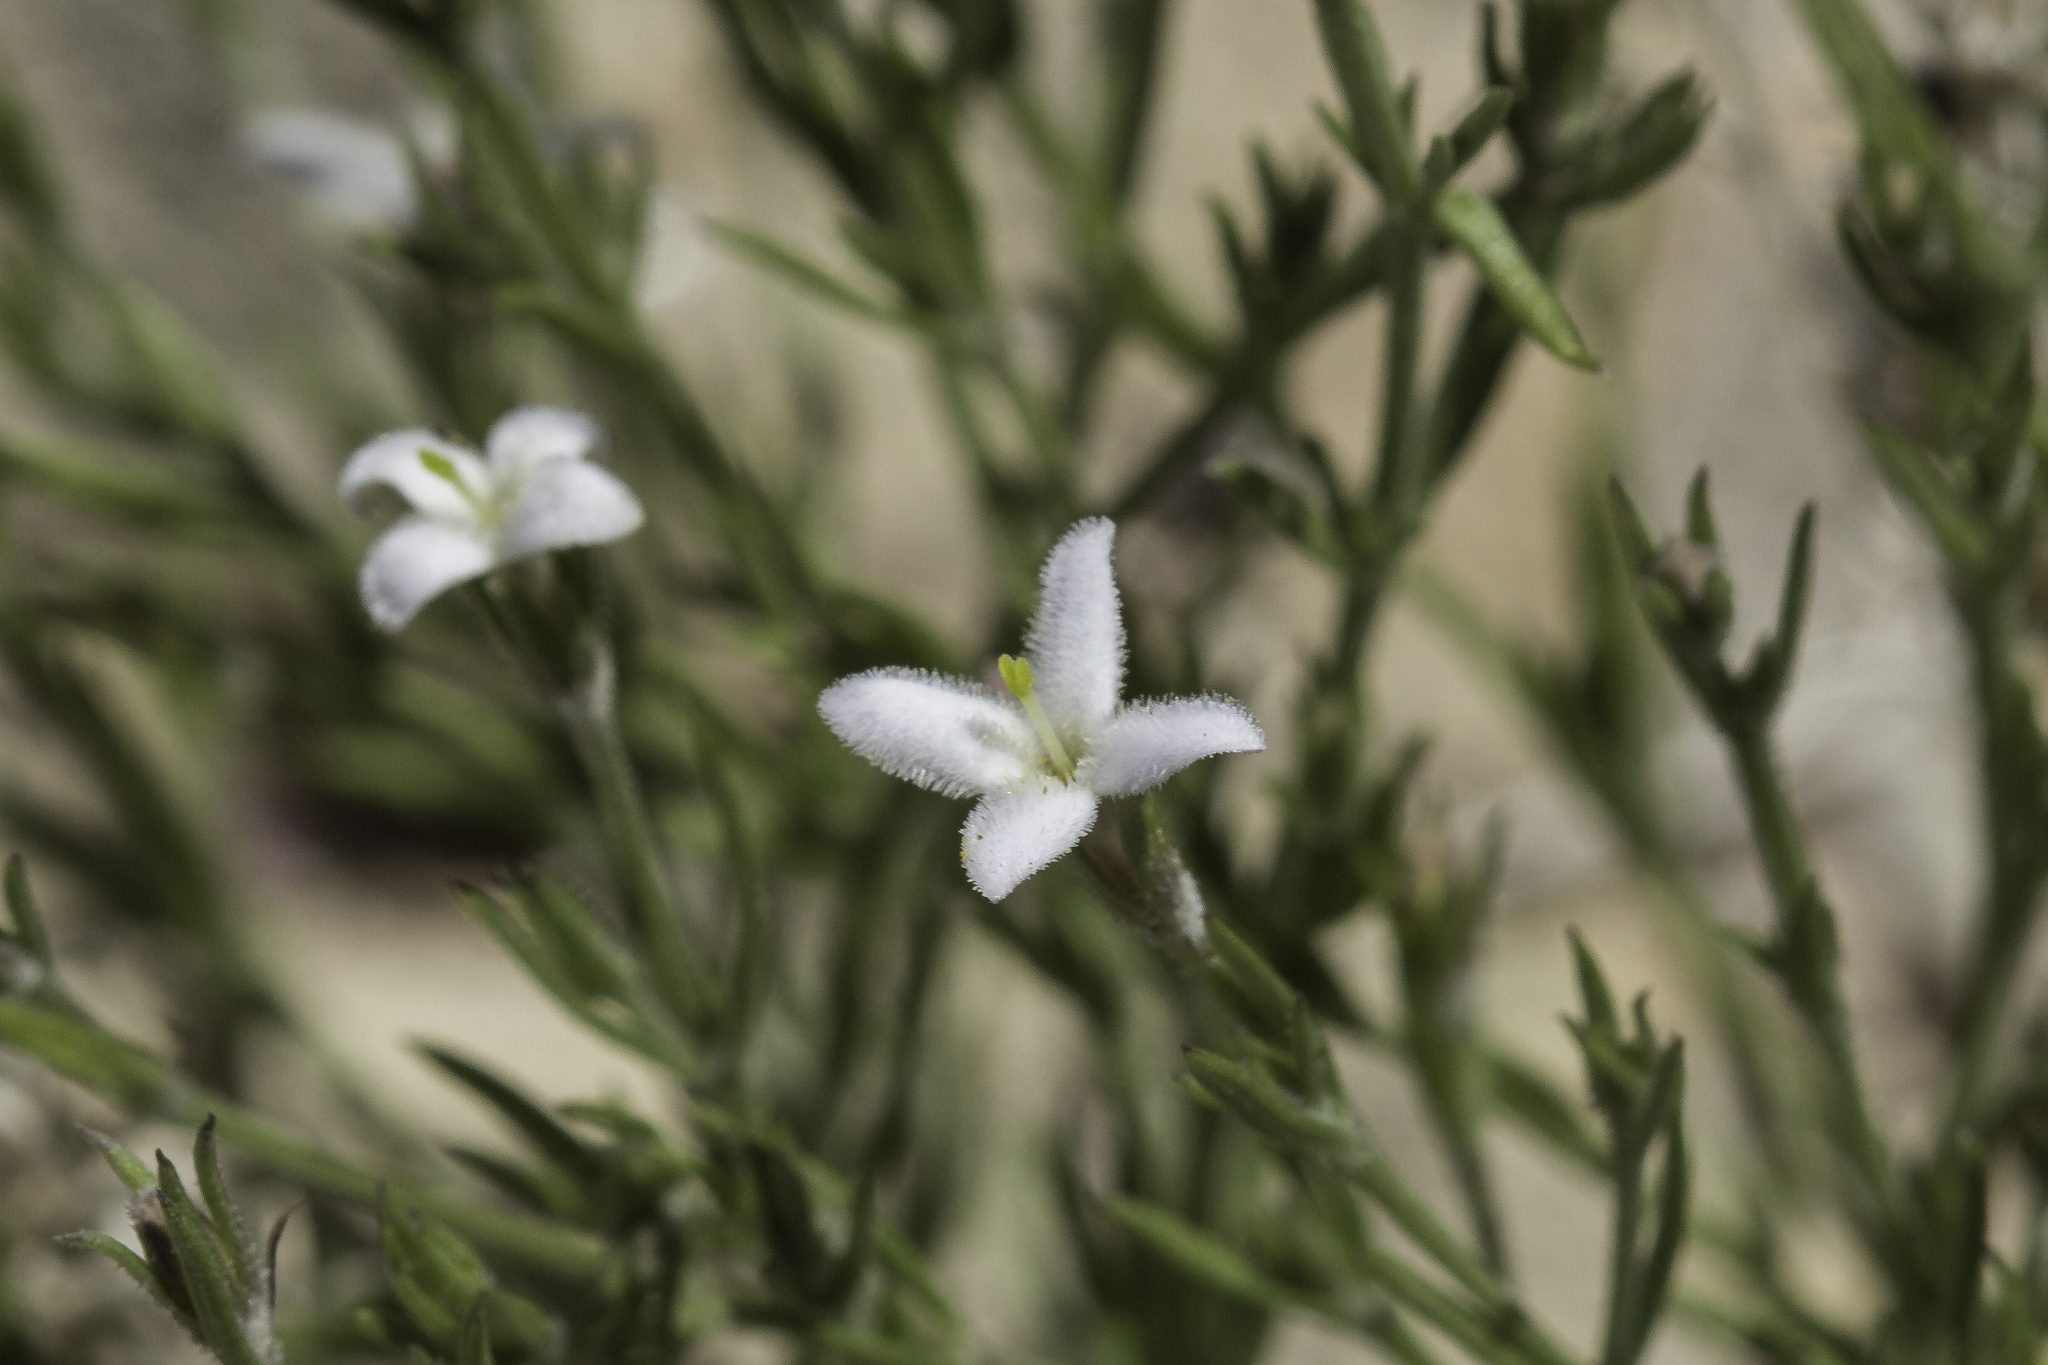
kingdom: Plantae
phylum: Tracheophyta
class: Magnoliopsida
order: Gentianales
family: Rubiaceae
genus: Houstonia
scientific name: Houstonia acerosa
